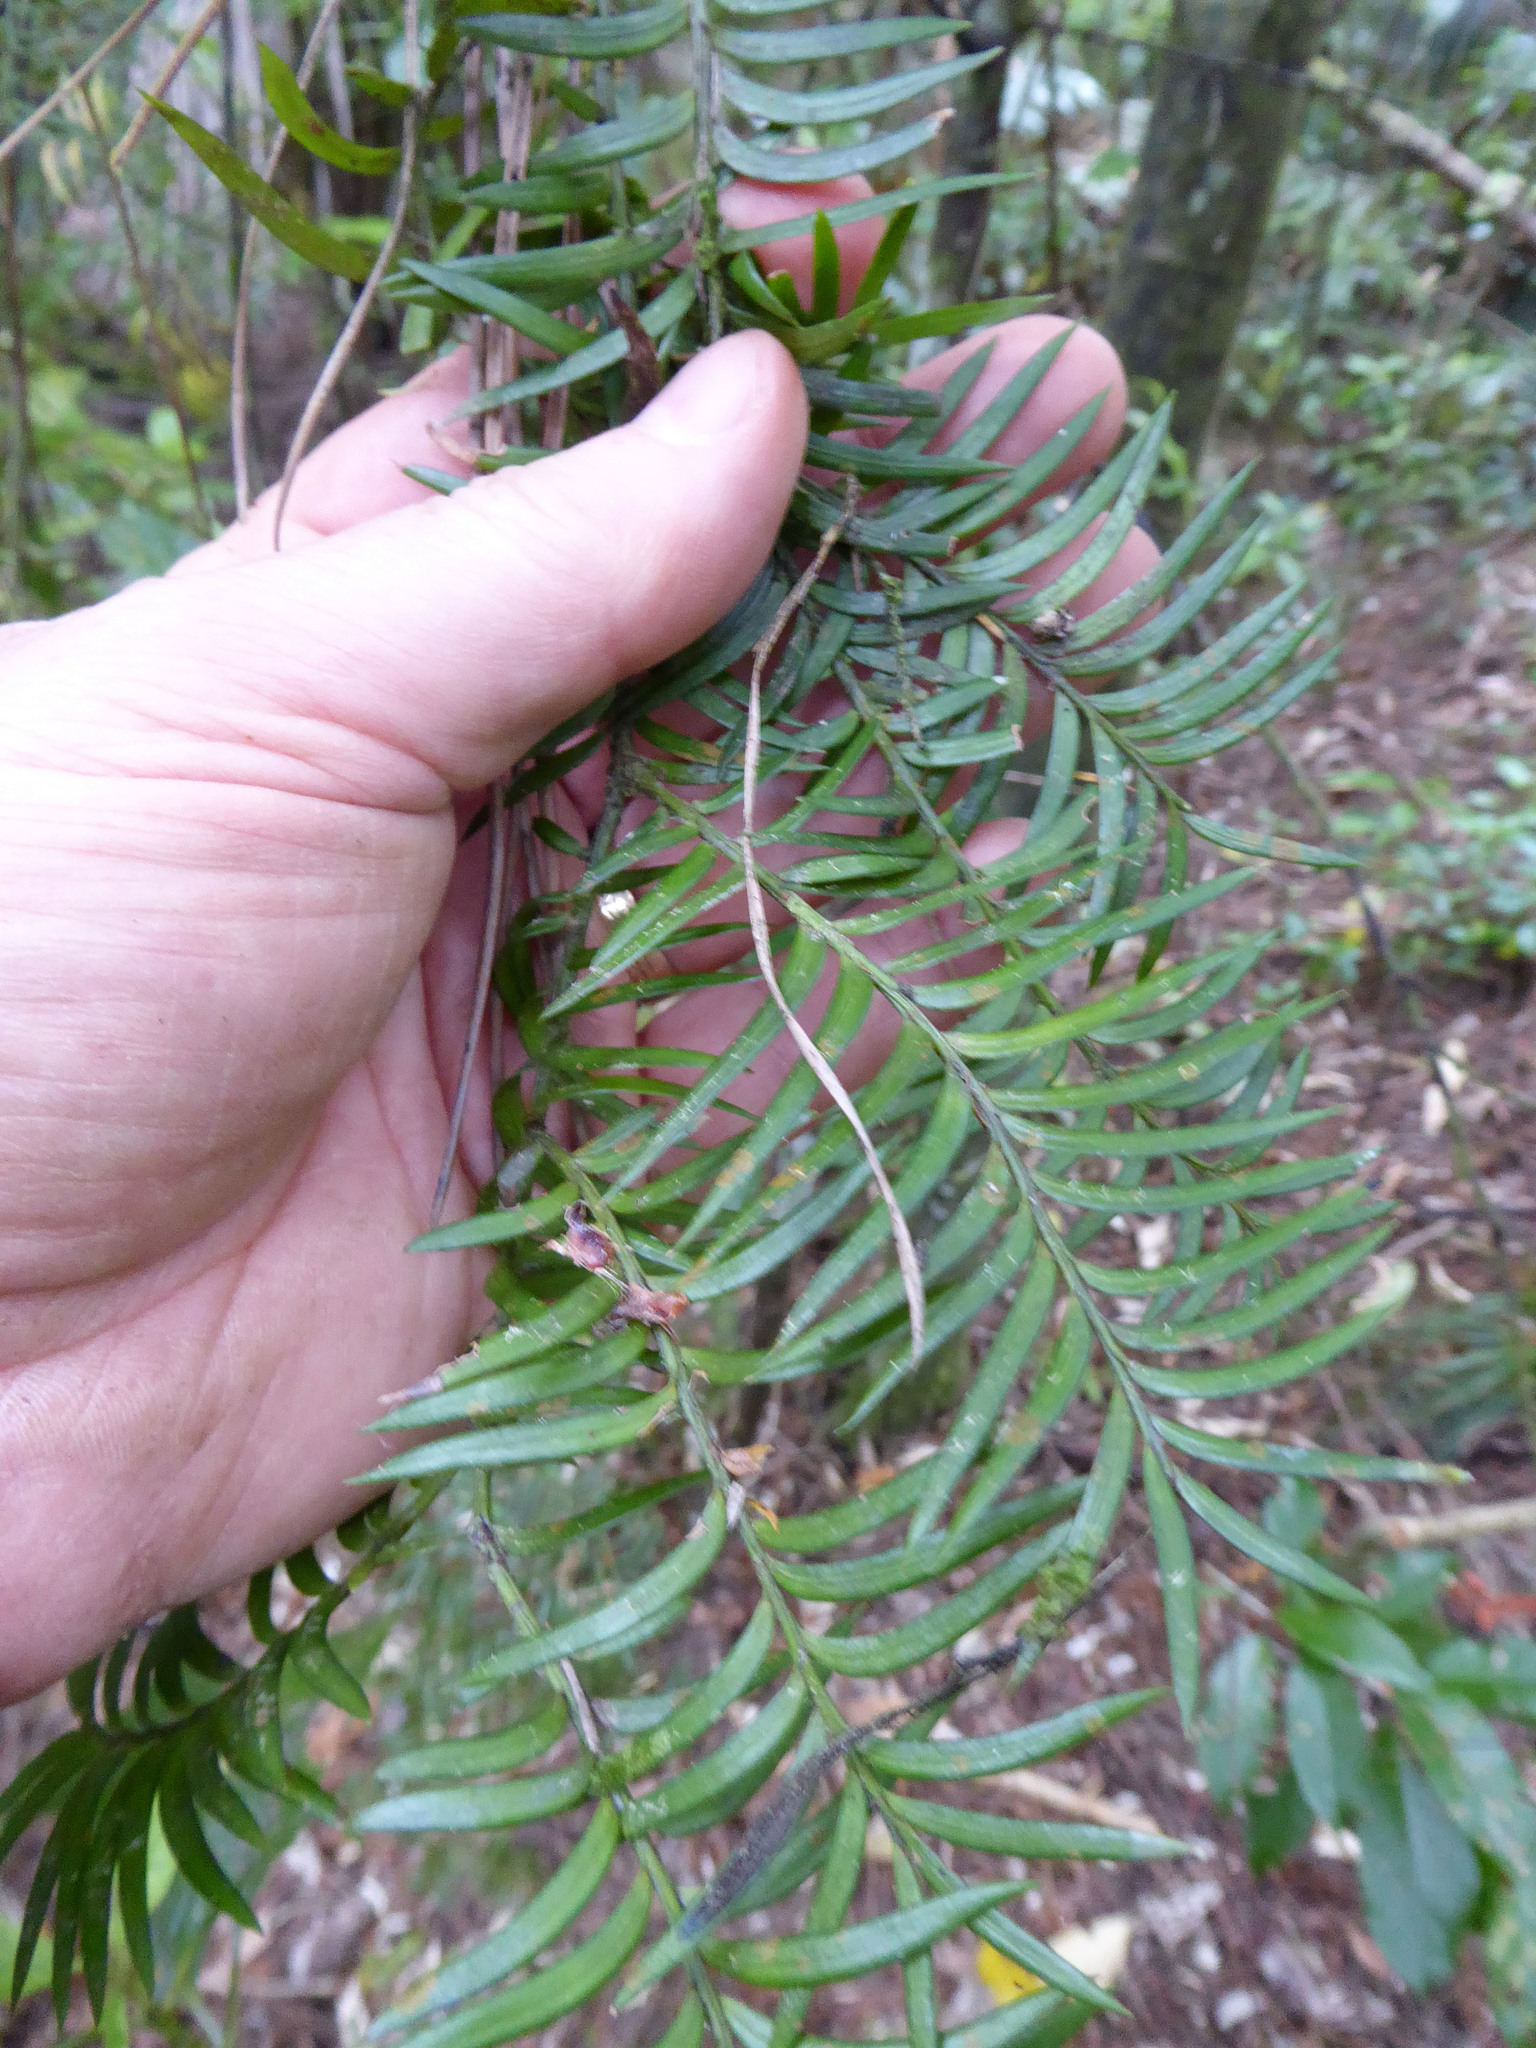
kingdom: Plantae
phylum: Tracheophyta
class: Pinopsida
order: Pinales
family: Podocarpaceae
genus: Prumnopitys
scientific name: Prumnopitys ferruginea
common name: Brown pine
